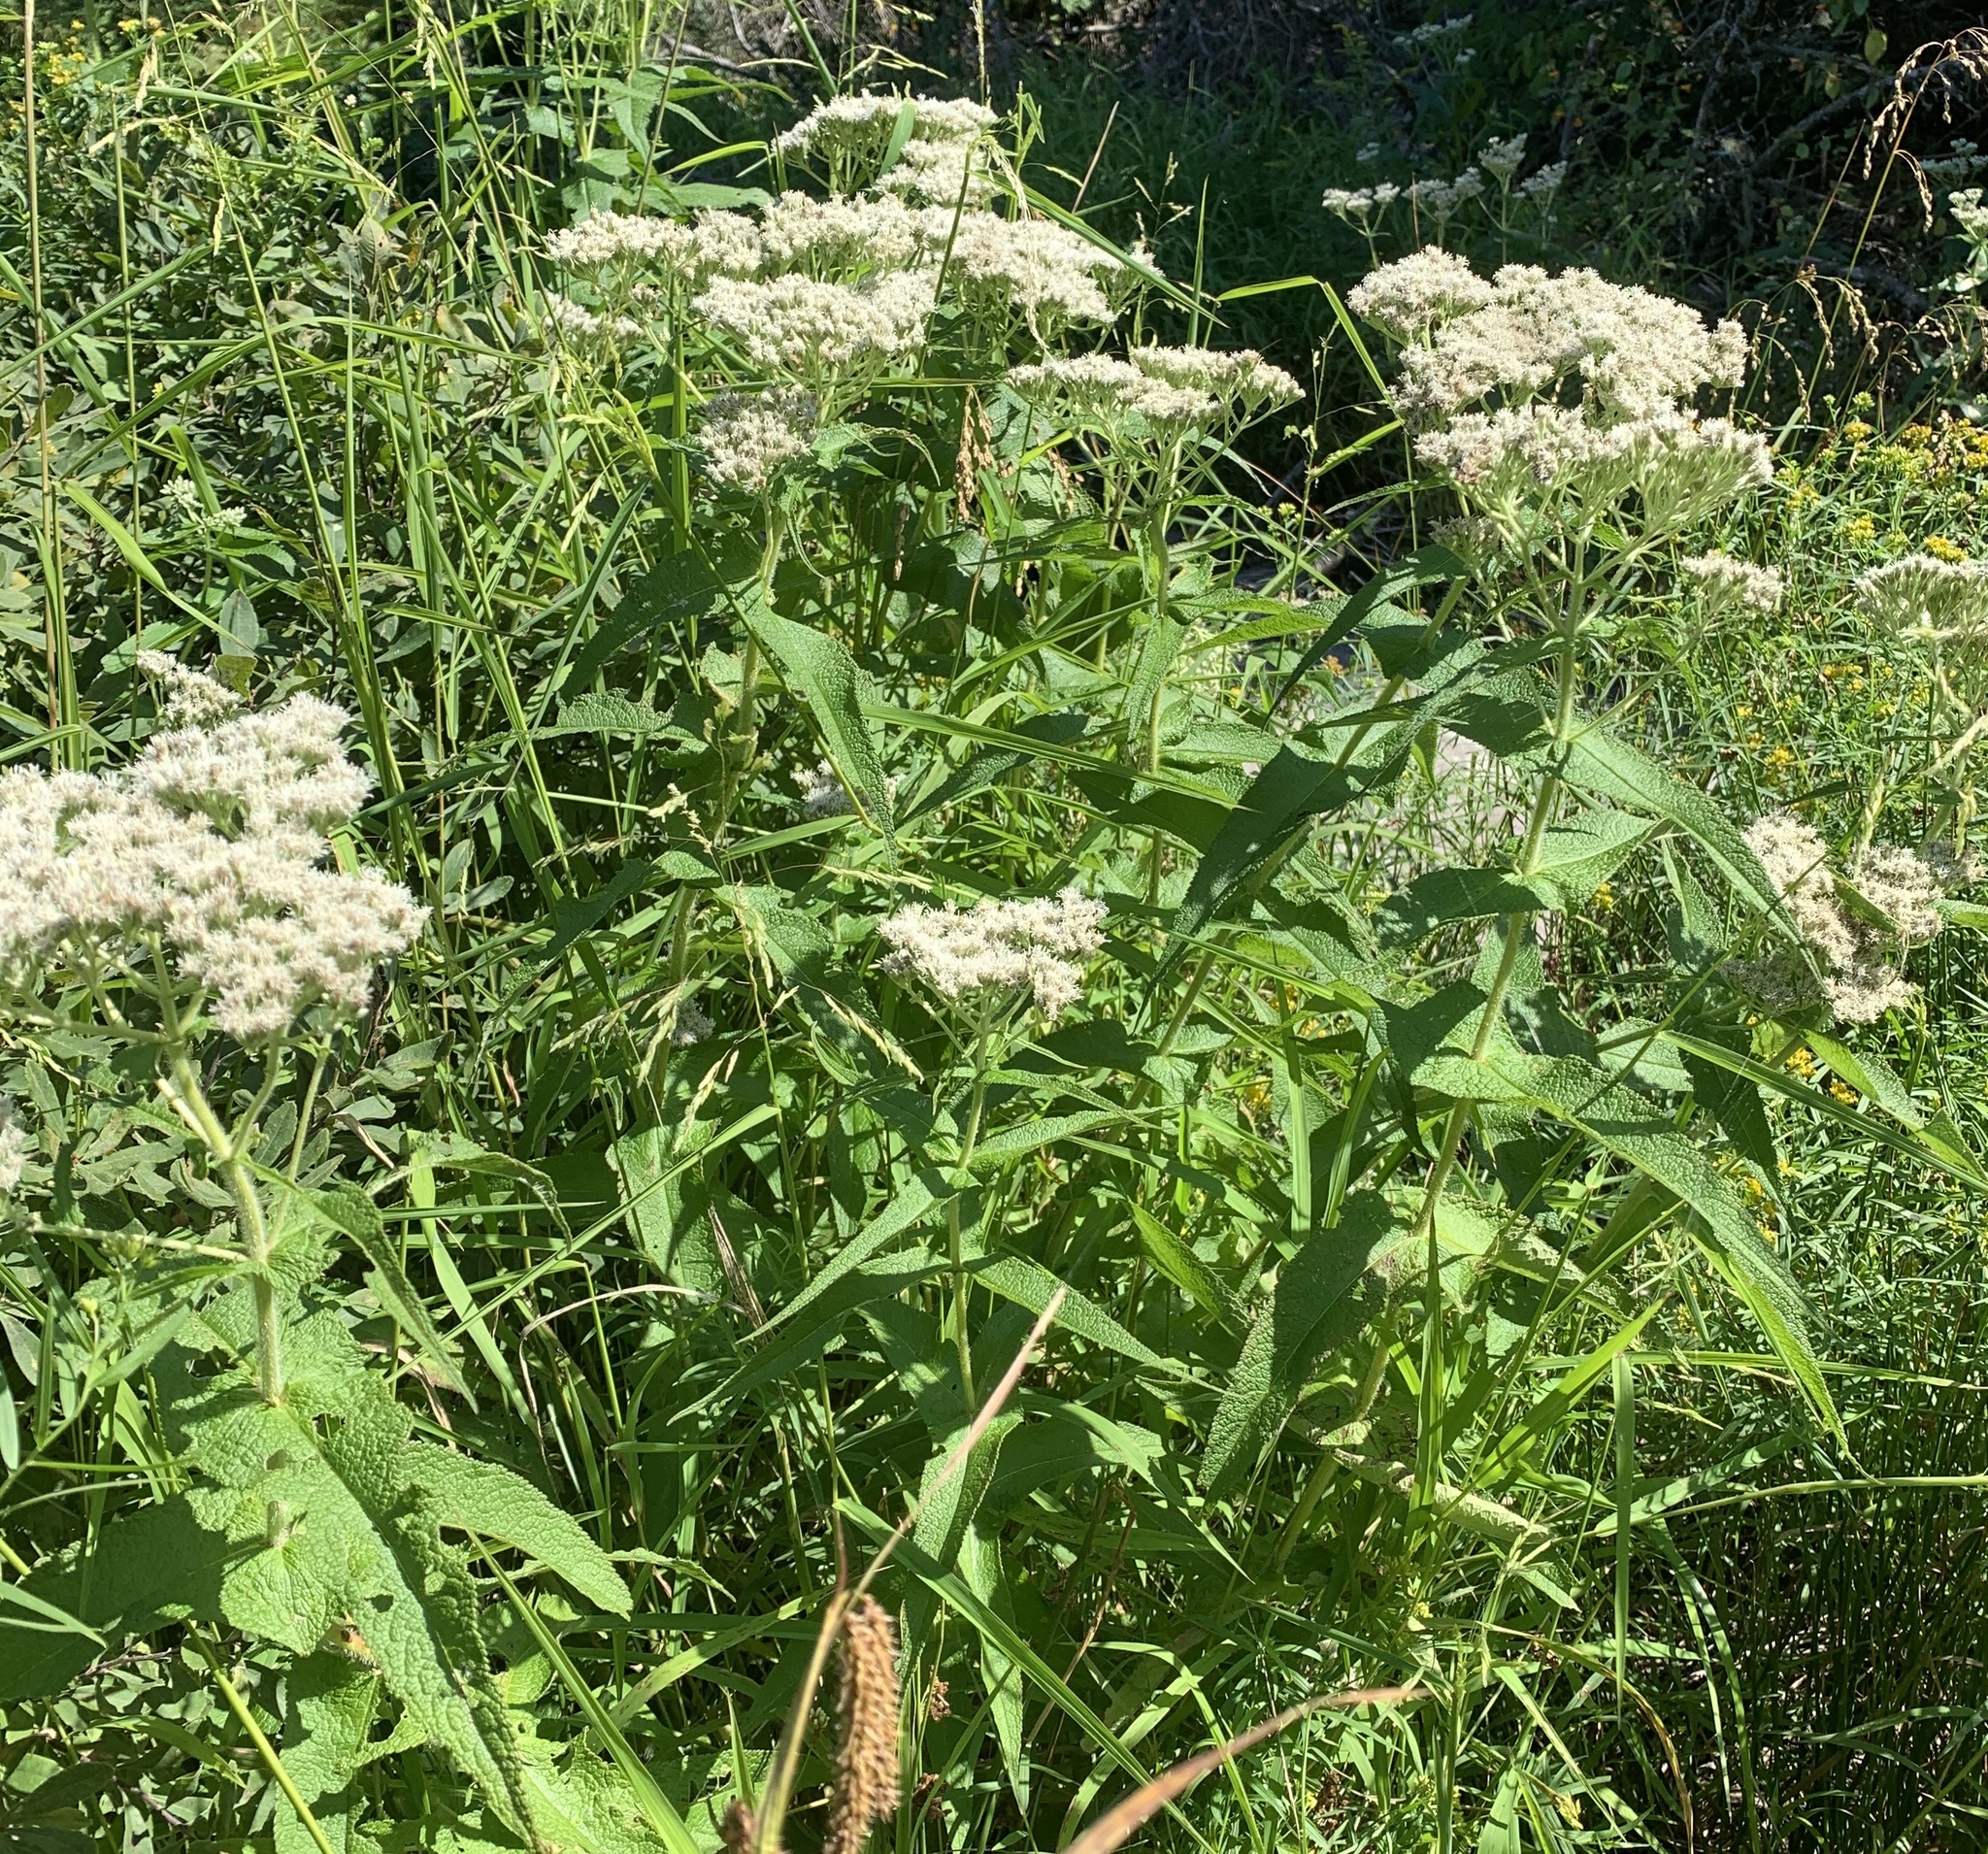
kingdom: Plantae
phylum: Tracheophyta
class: Magnoliopsida
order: Asterales
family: Asteraceae
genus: Eupatorium
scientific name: Eupatorium perfoliatum
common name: Boneset
